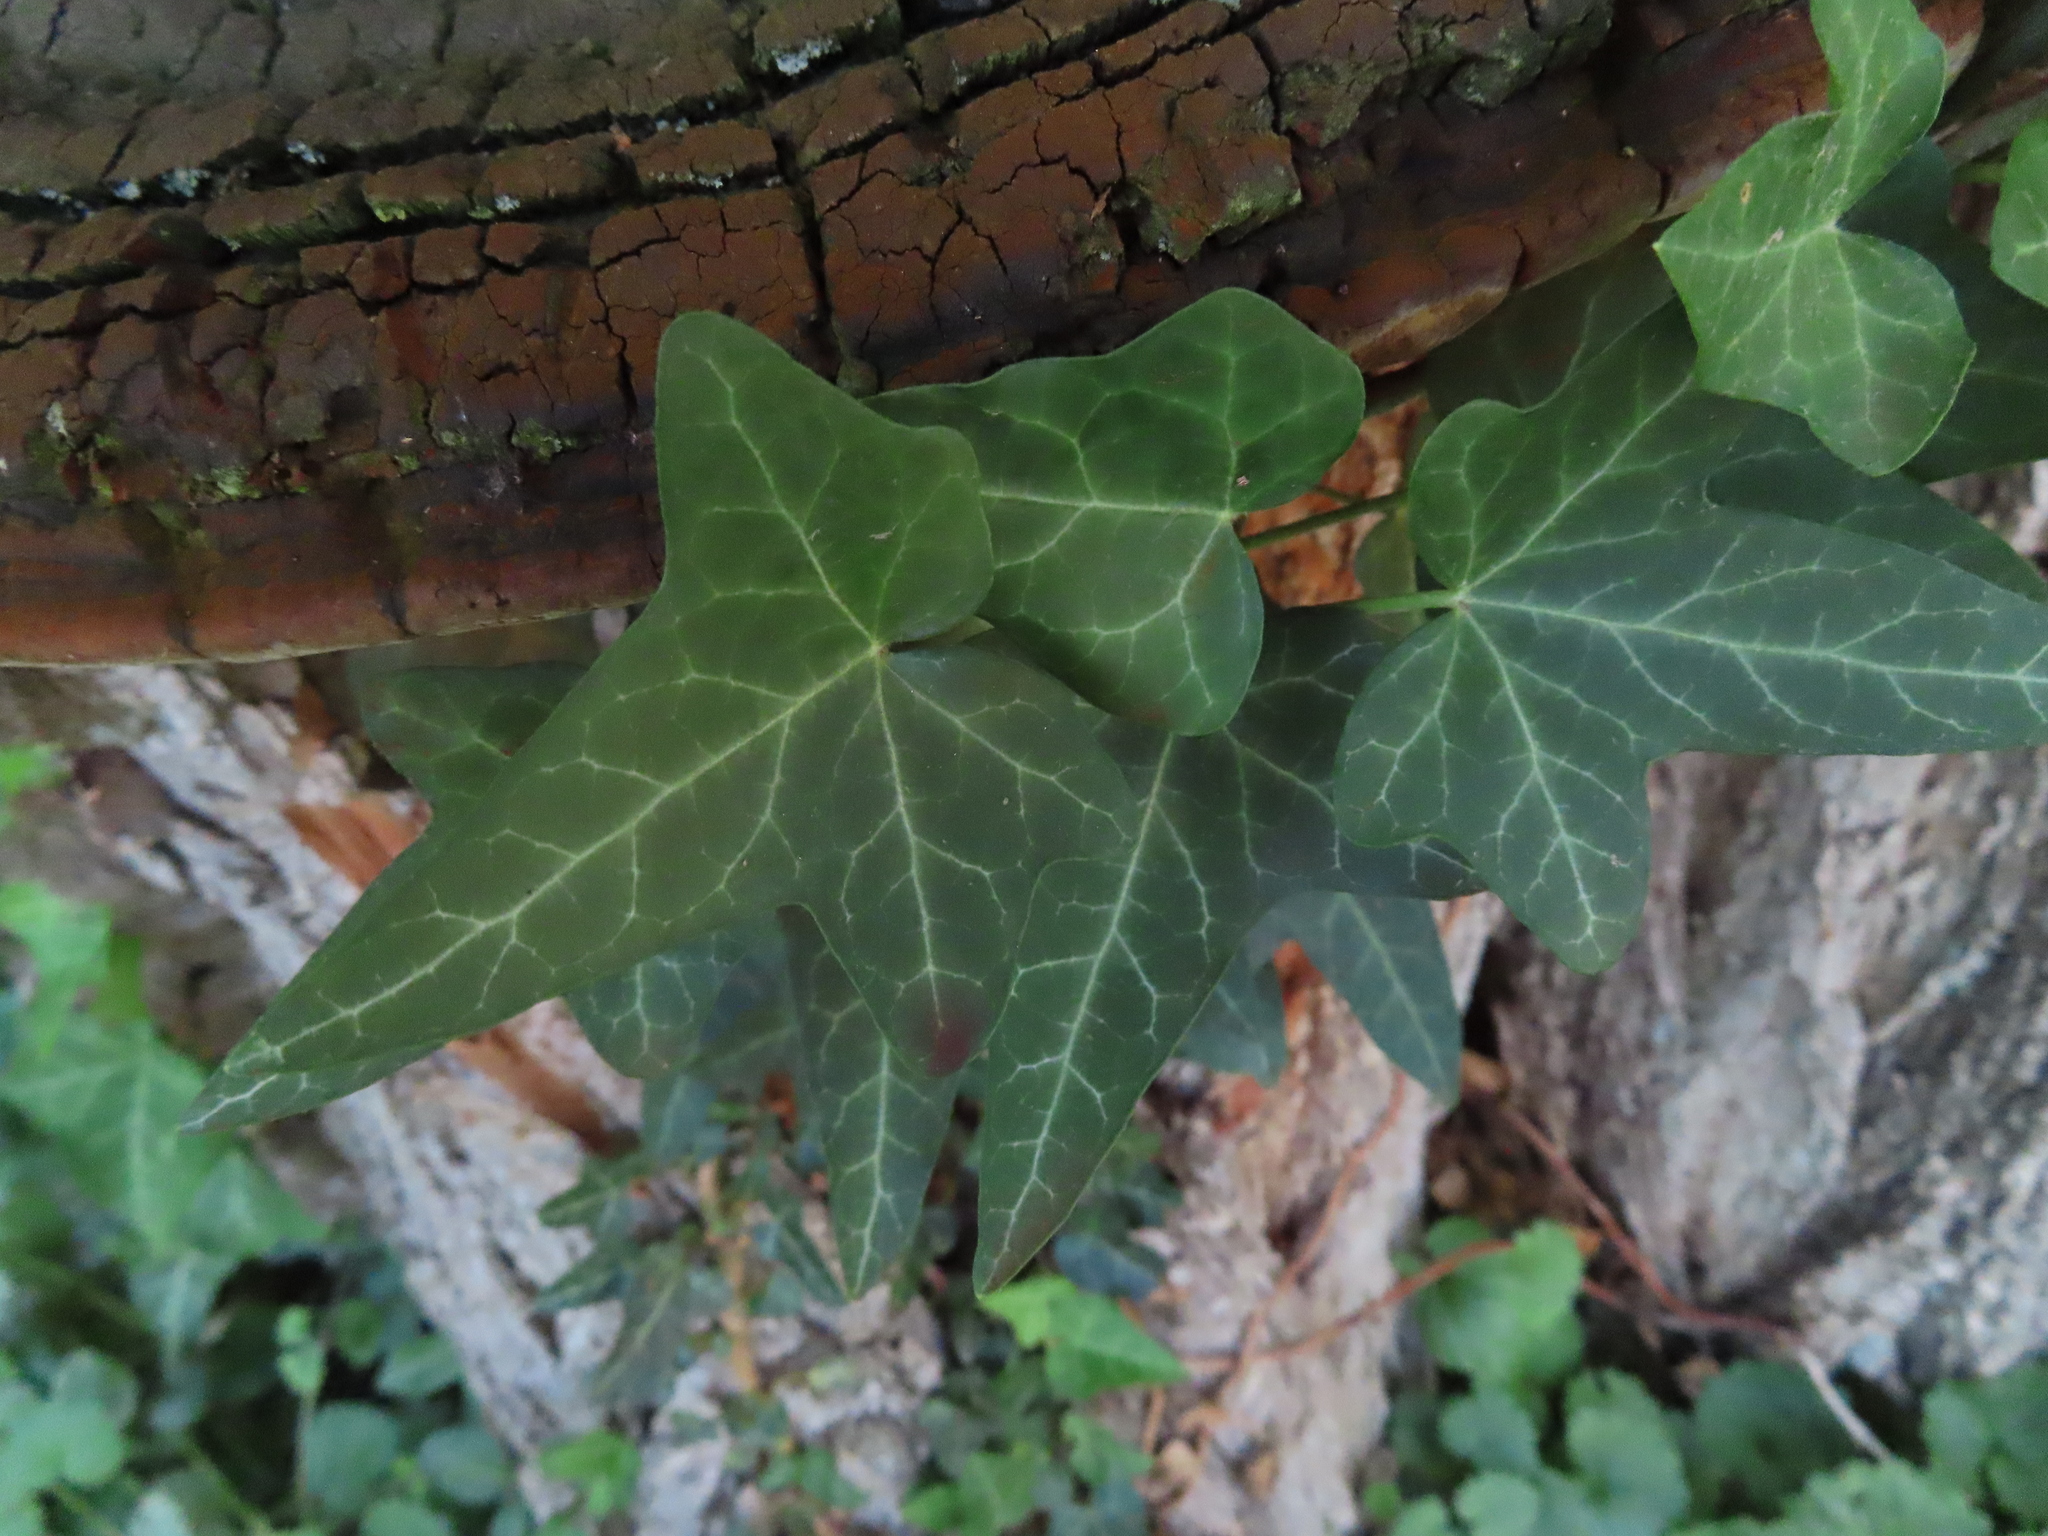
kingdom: Plantae
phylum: Tracheophyta
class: Magnoliopsida
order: Apiales
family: Araliaceae
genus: Hedera
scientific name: Hedera helix
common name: Ivy
